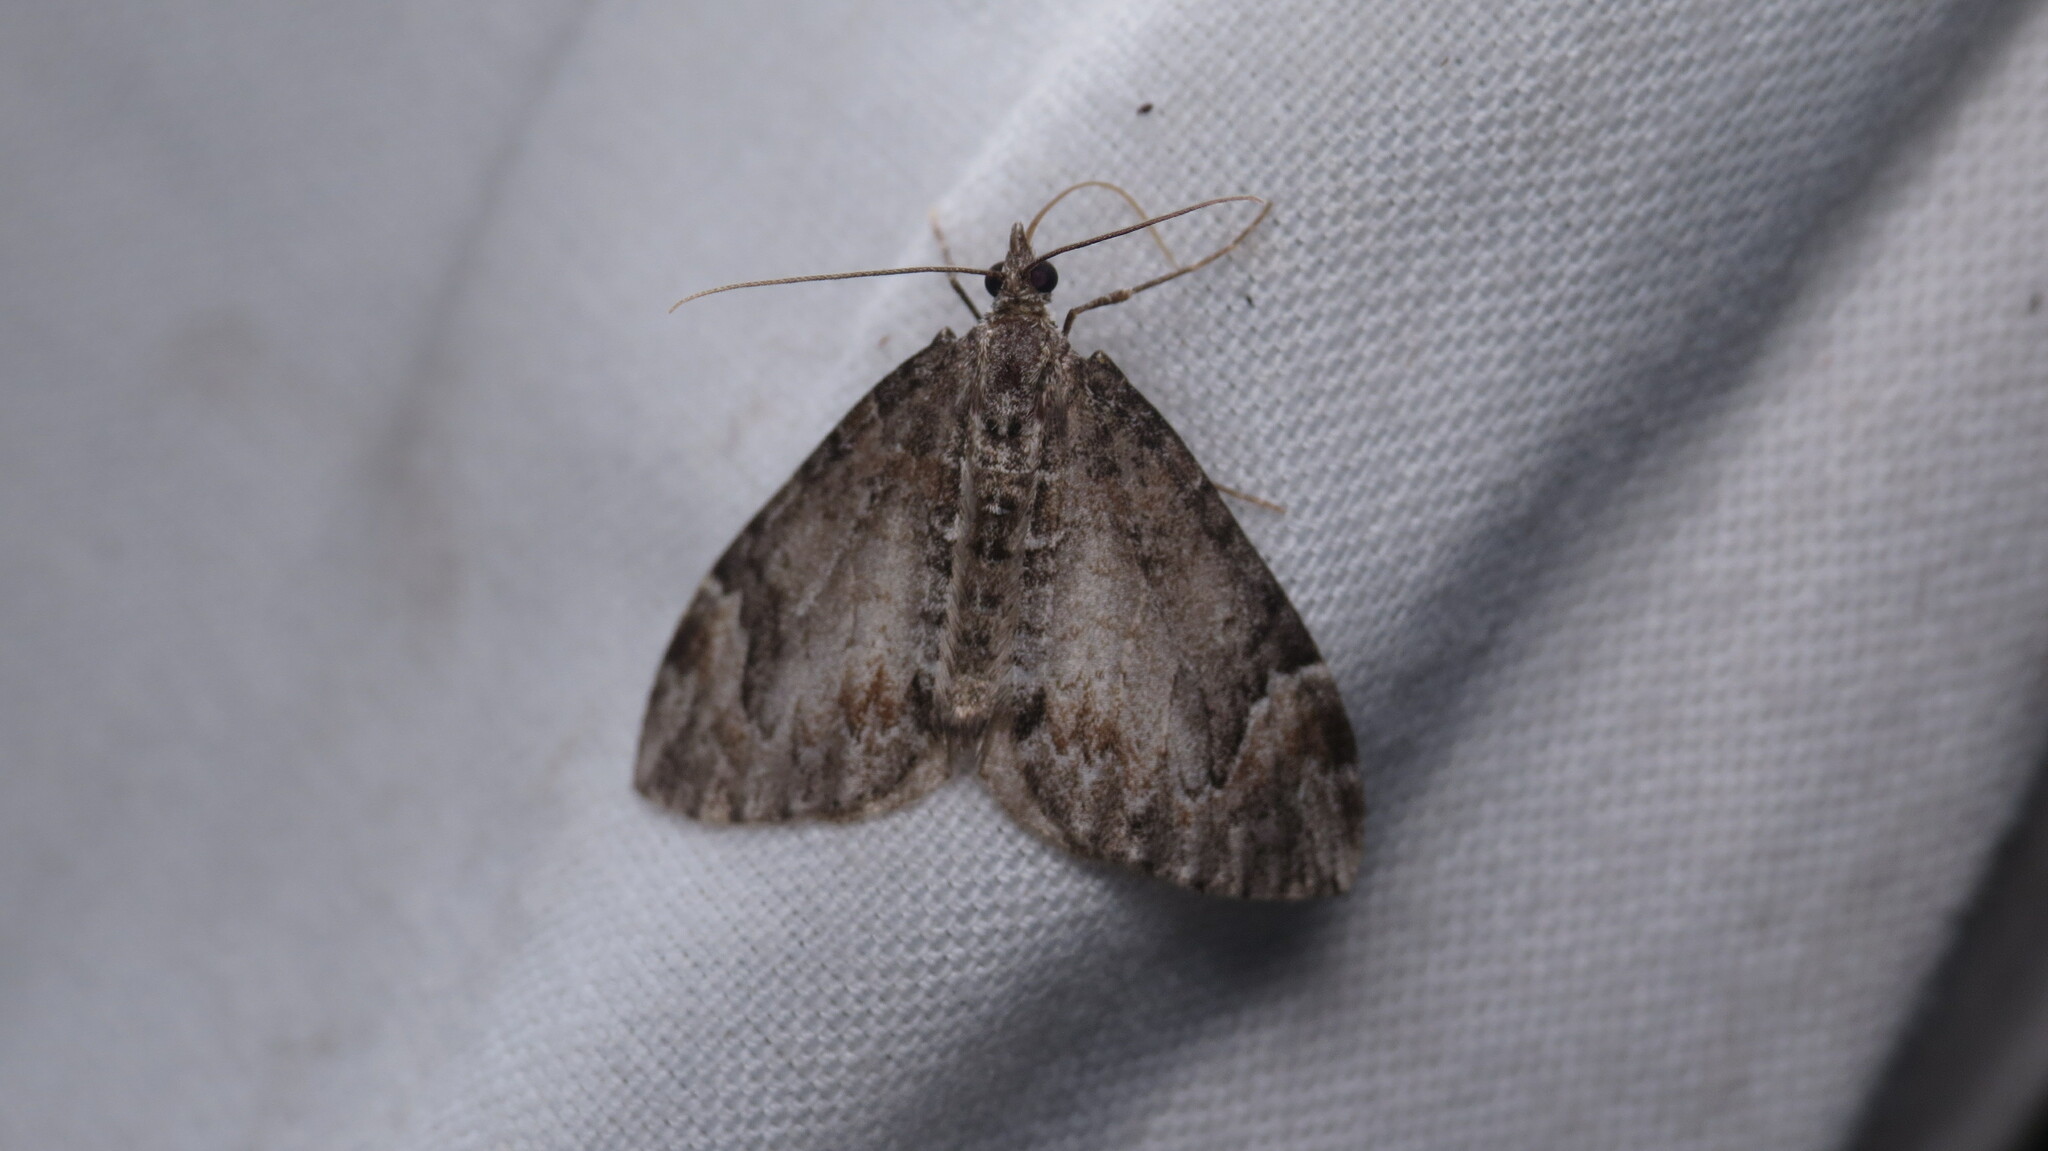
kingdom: Animalia
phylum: Arthropoda
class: Insecta
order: Lepidoptera
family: Geometridae
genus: Dysstroma
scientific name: Dysstroma citrata
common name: Dark marbled carpet
